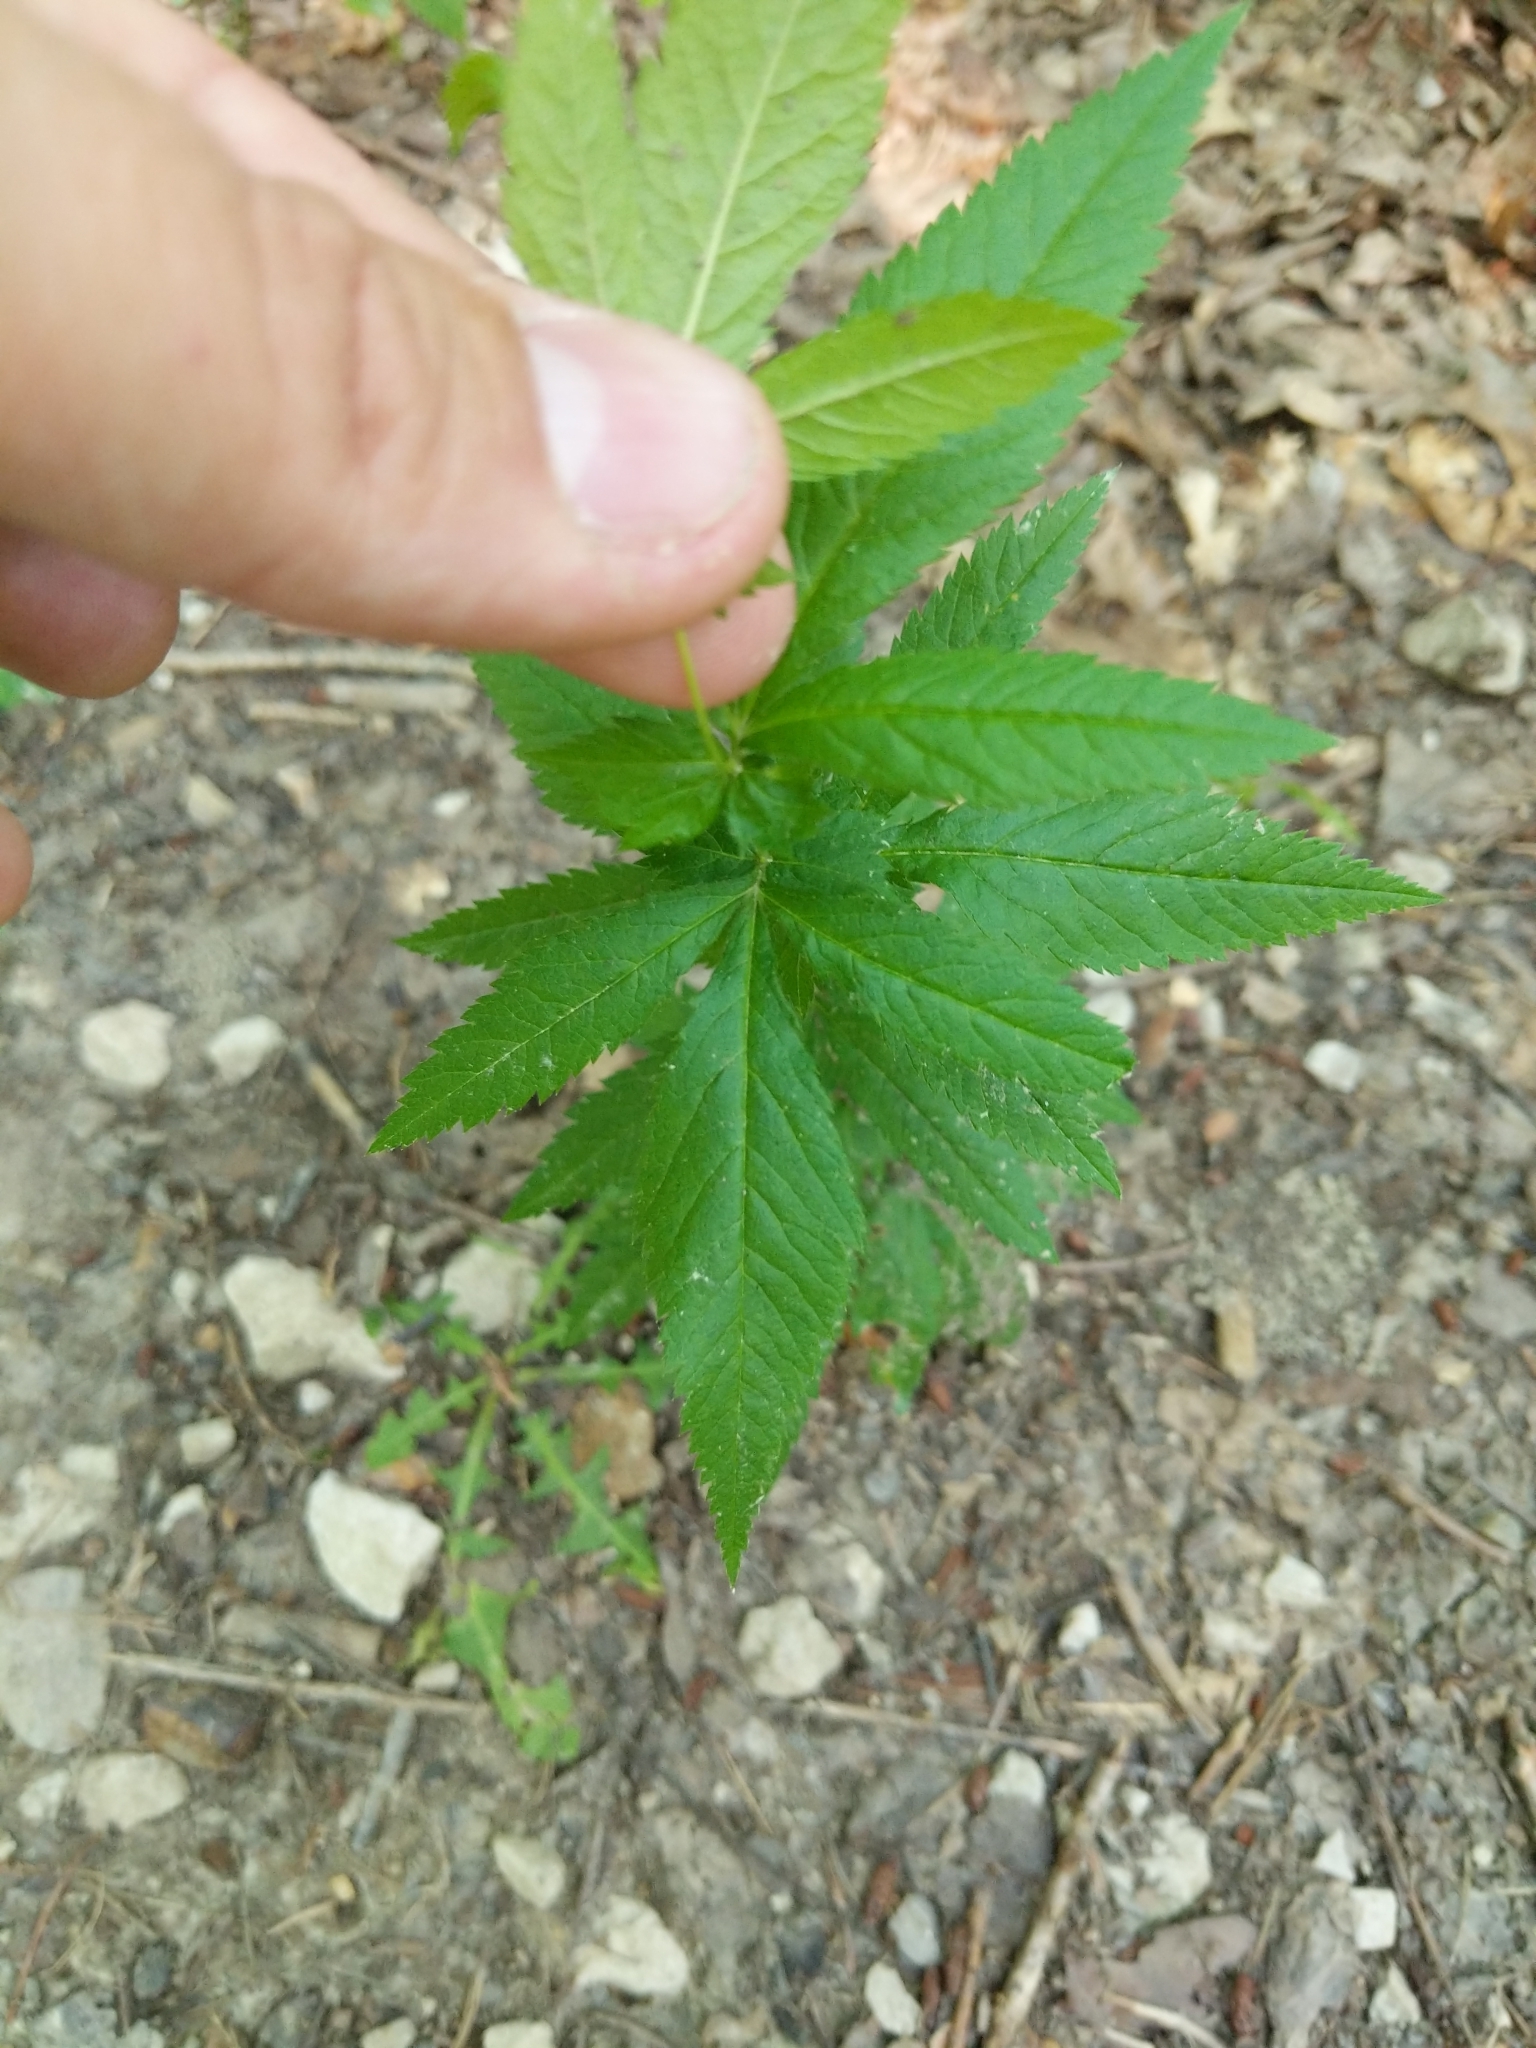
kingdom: Plantae
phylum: Tracheophyta
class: Magnoliopsida
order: Rosales
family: Rosaceae
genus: Gillenia
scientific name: Gillenia stipulata
